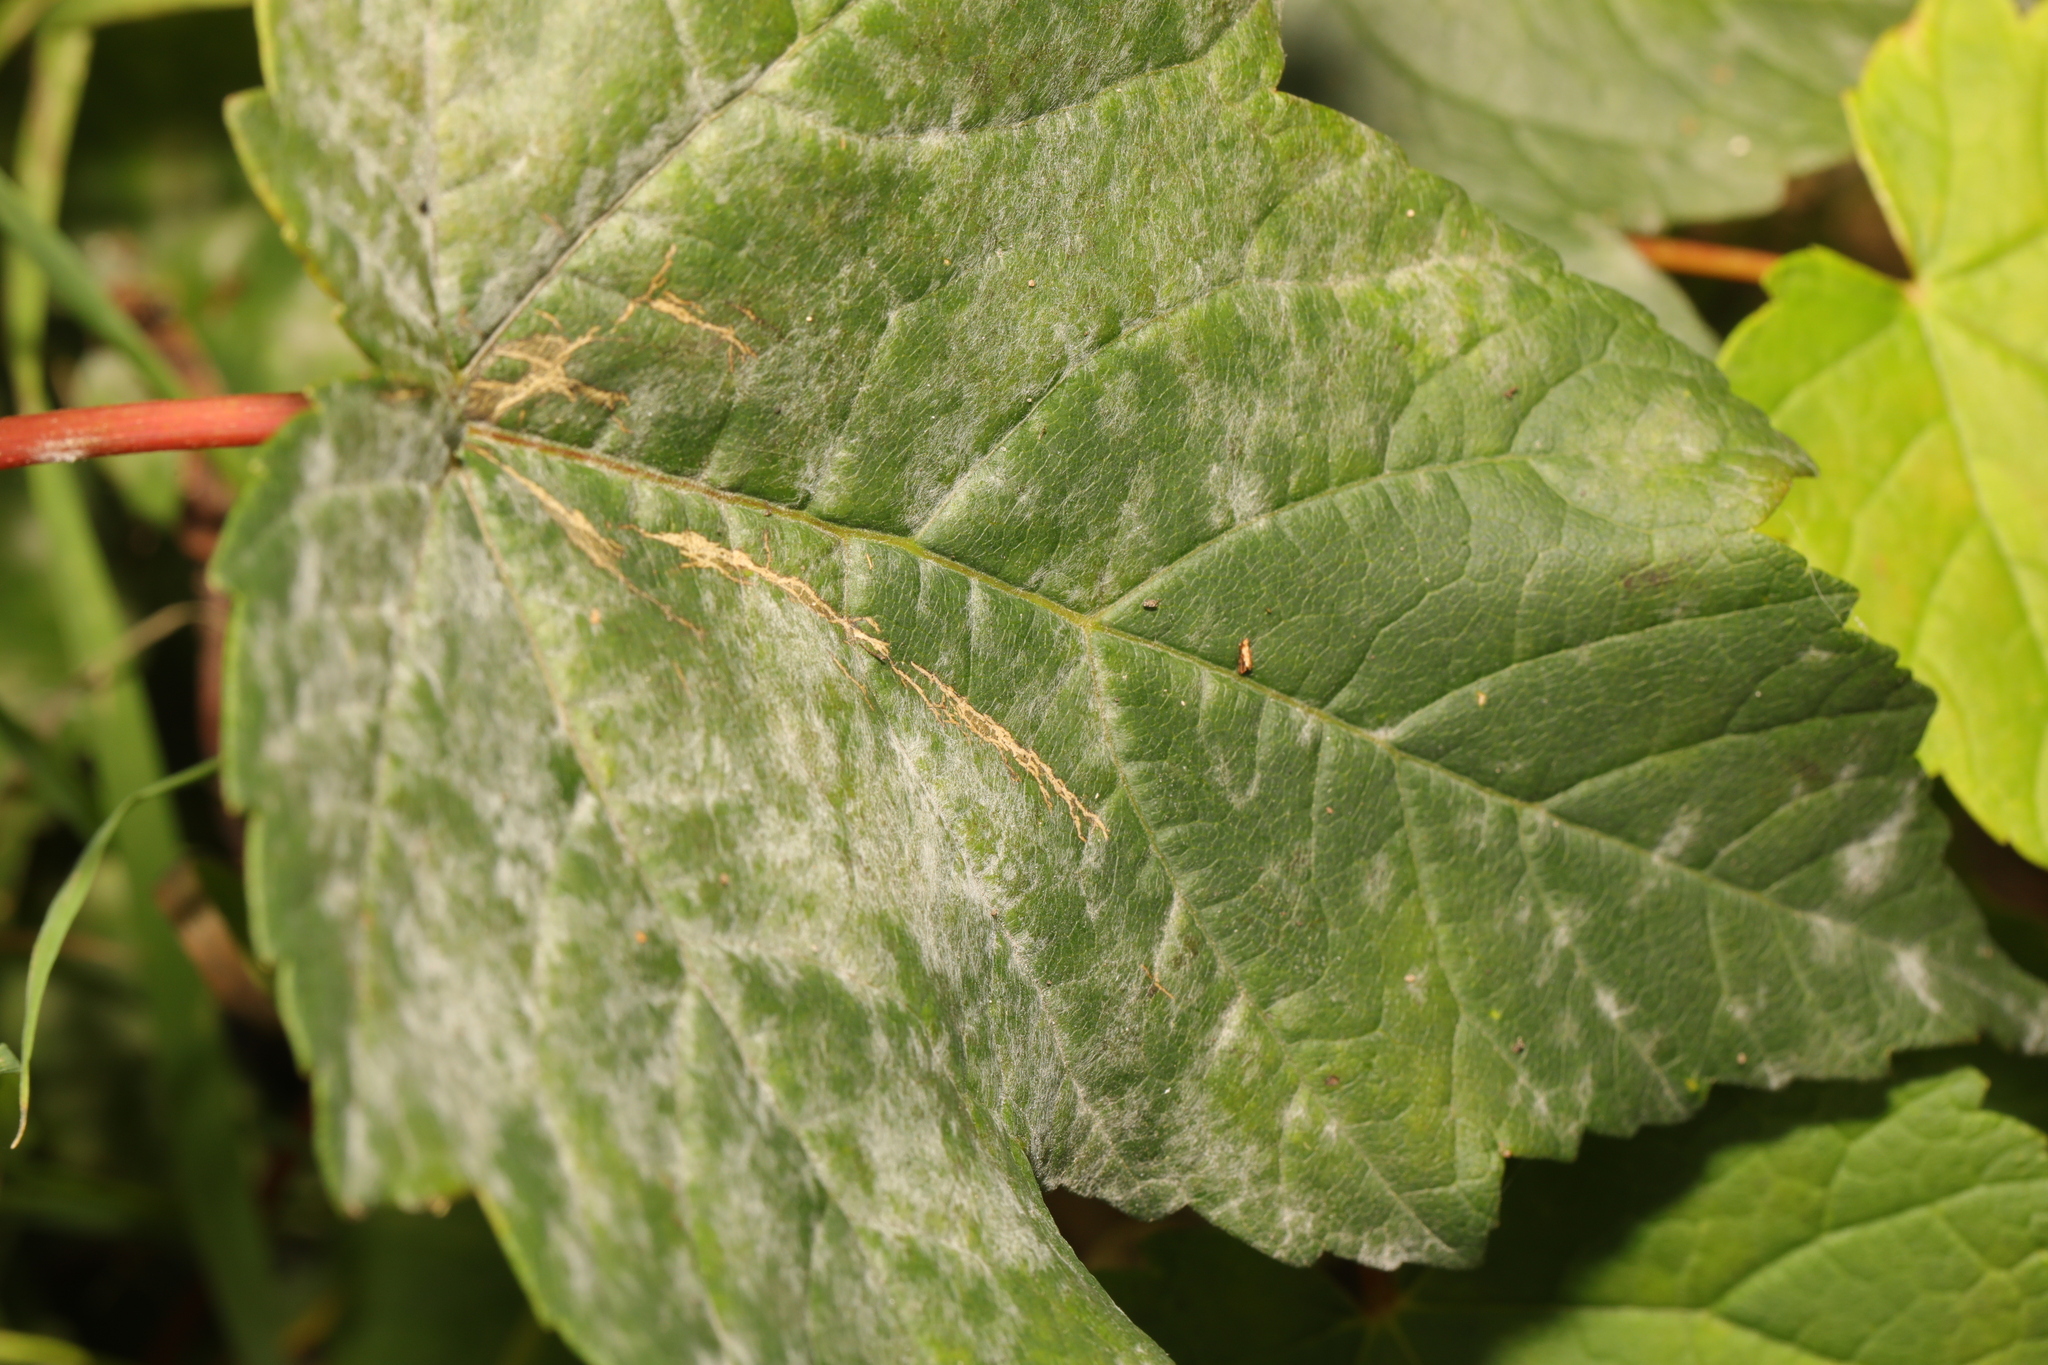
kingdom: Fungi
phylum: Ascomycota
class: Leotiomycetes
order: Helotiales
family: Erysiphaceae
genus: Sawadaea
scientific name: Sawadaea bicornis
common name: Maple mildew
